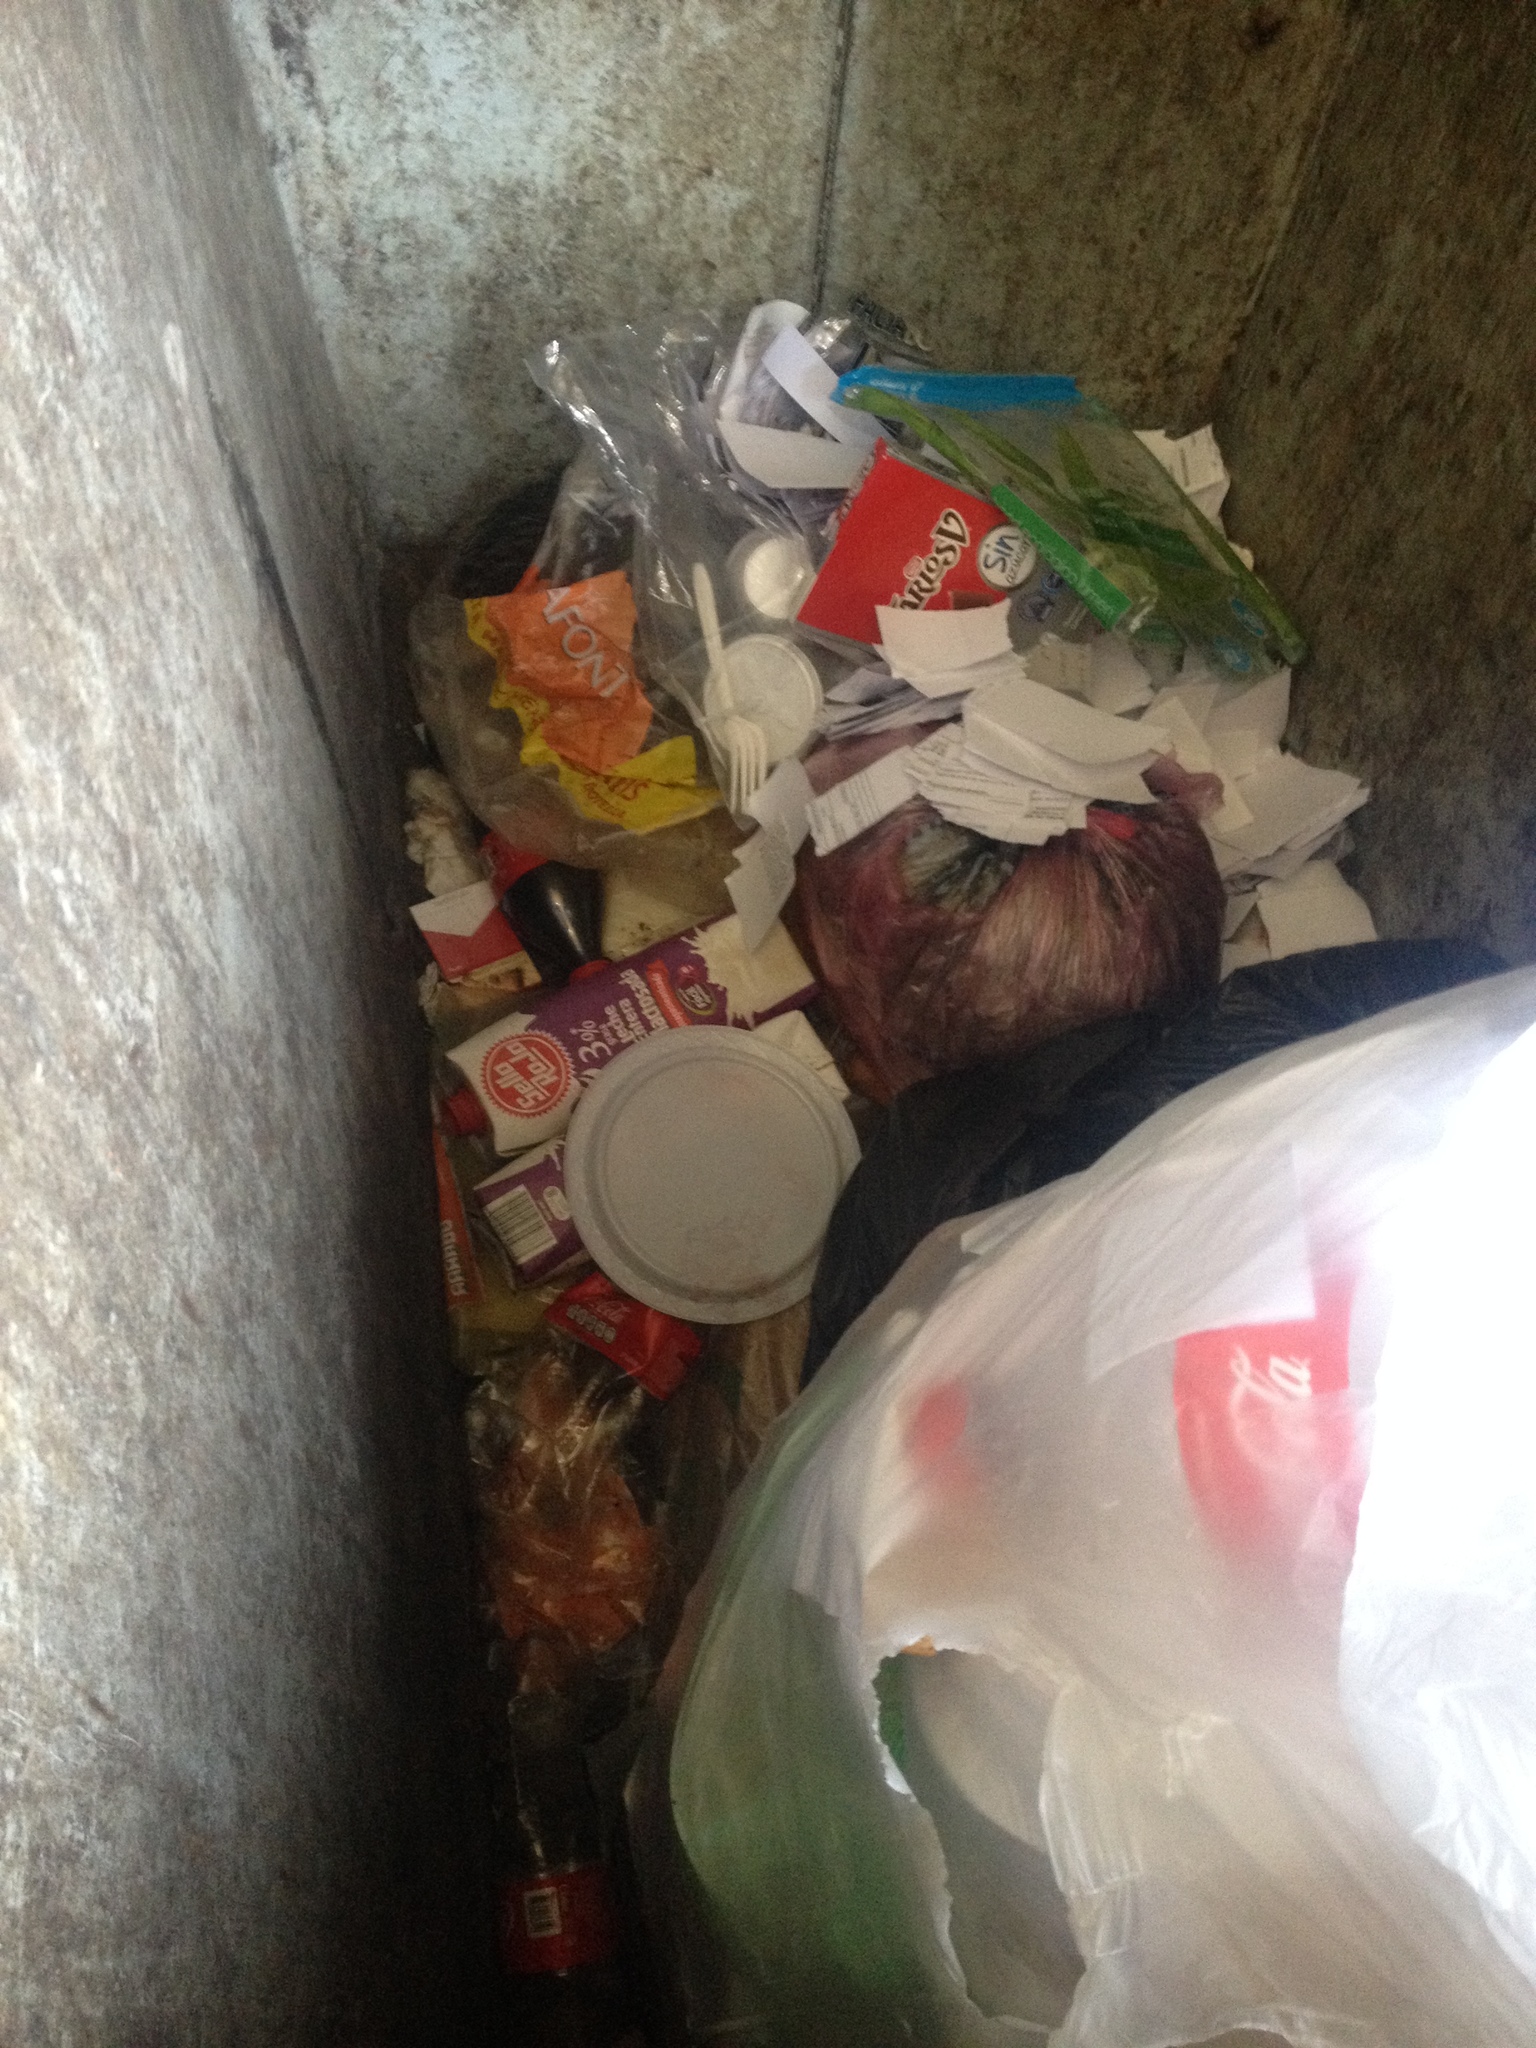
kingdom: Animalia
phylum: Chordata
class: Mammalia
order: Didelphimorphia
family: Didelphidae
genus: Didelphis
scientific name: Didelphis virginiana
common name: Virginia opossum
